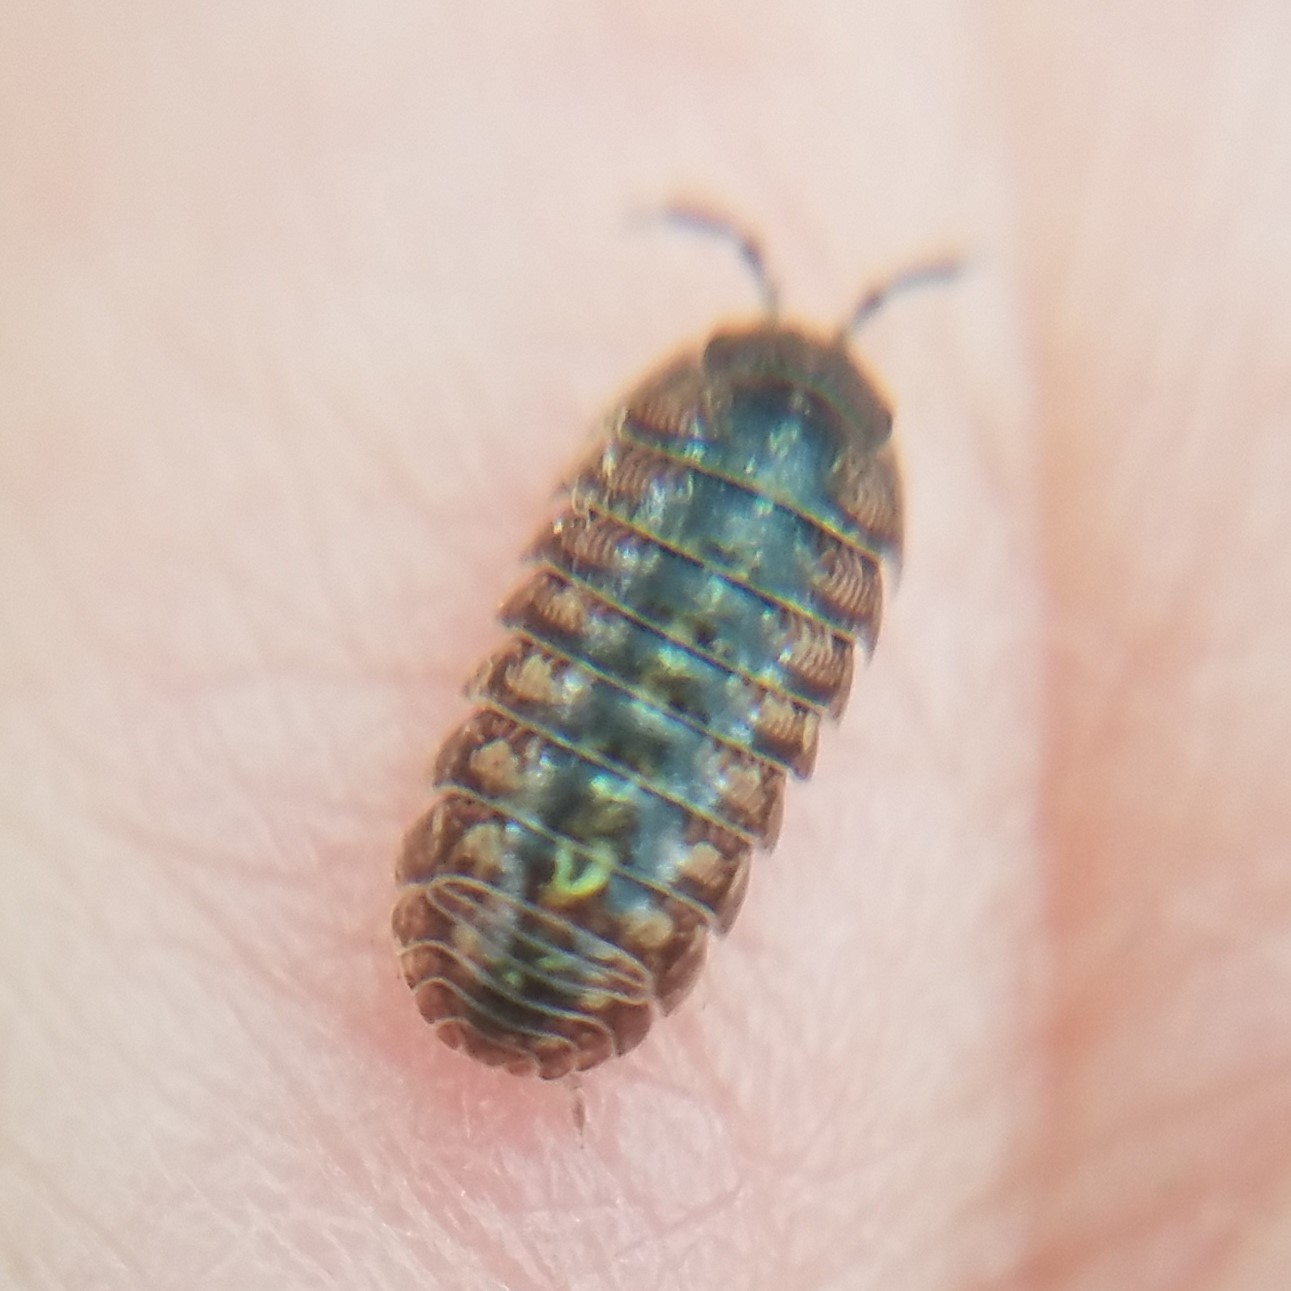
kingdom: Animalia
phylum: Arthropoda
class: Malacostraca
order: Isopoda
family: Armadillidiidae
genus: Armadillidium
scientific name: Armadillidium vulgare
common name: Common pill woodlouse
